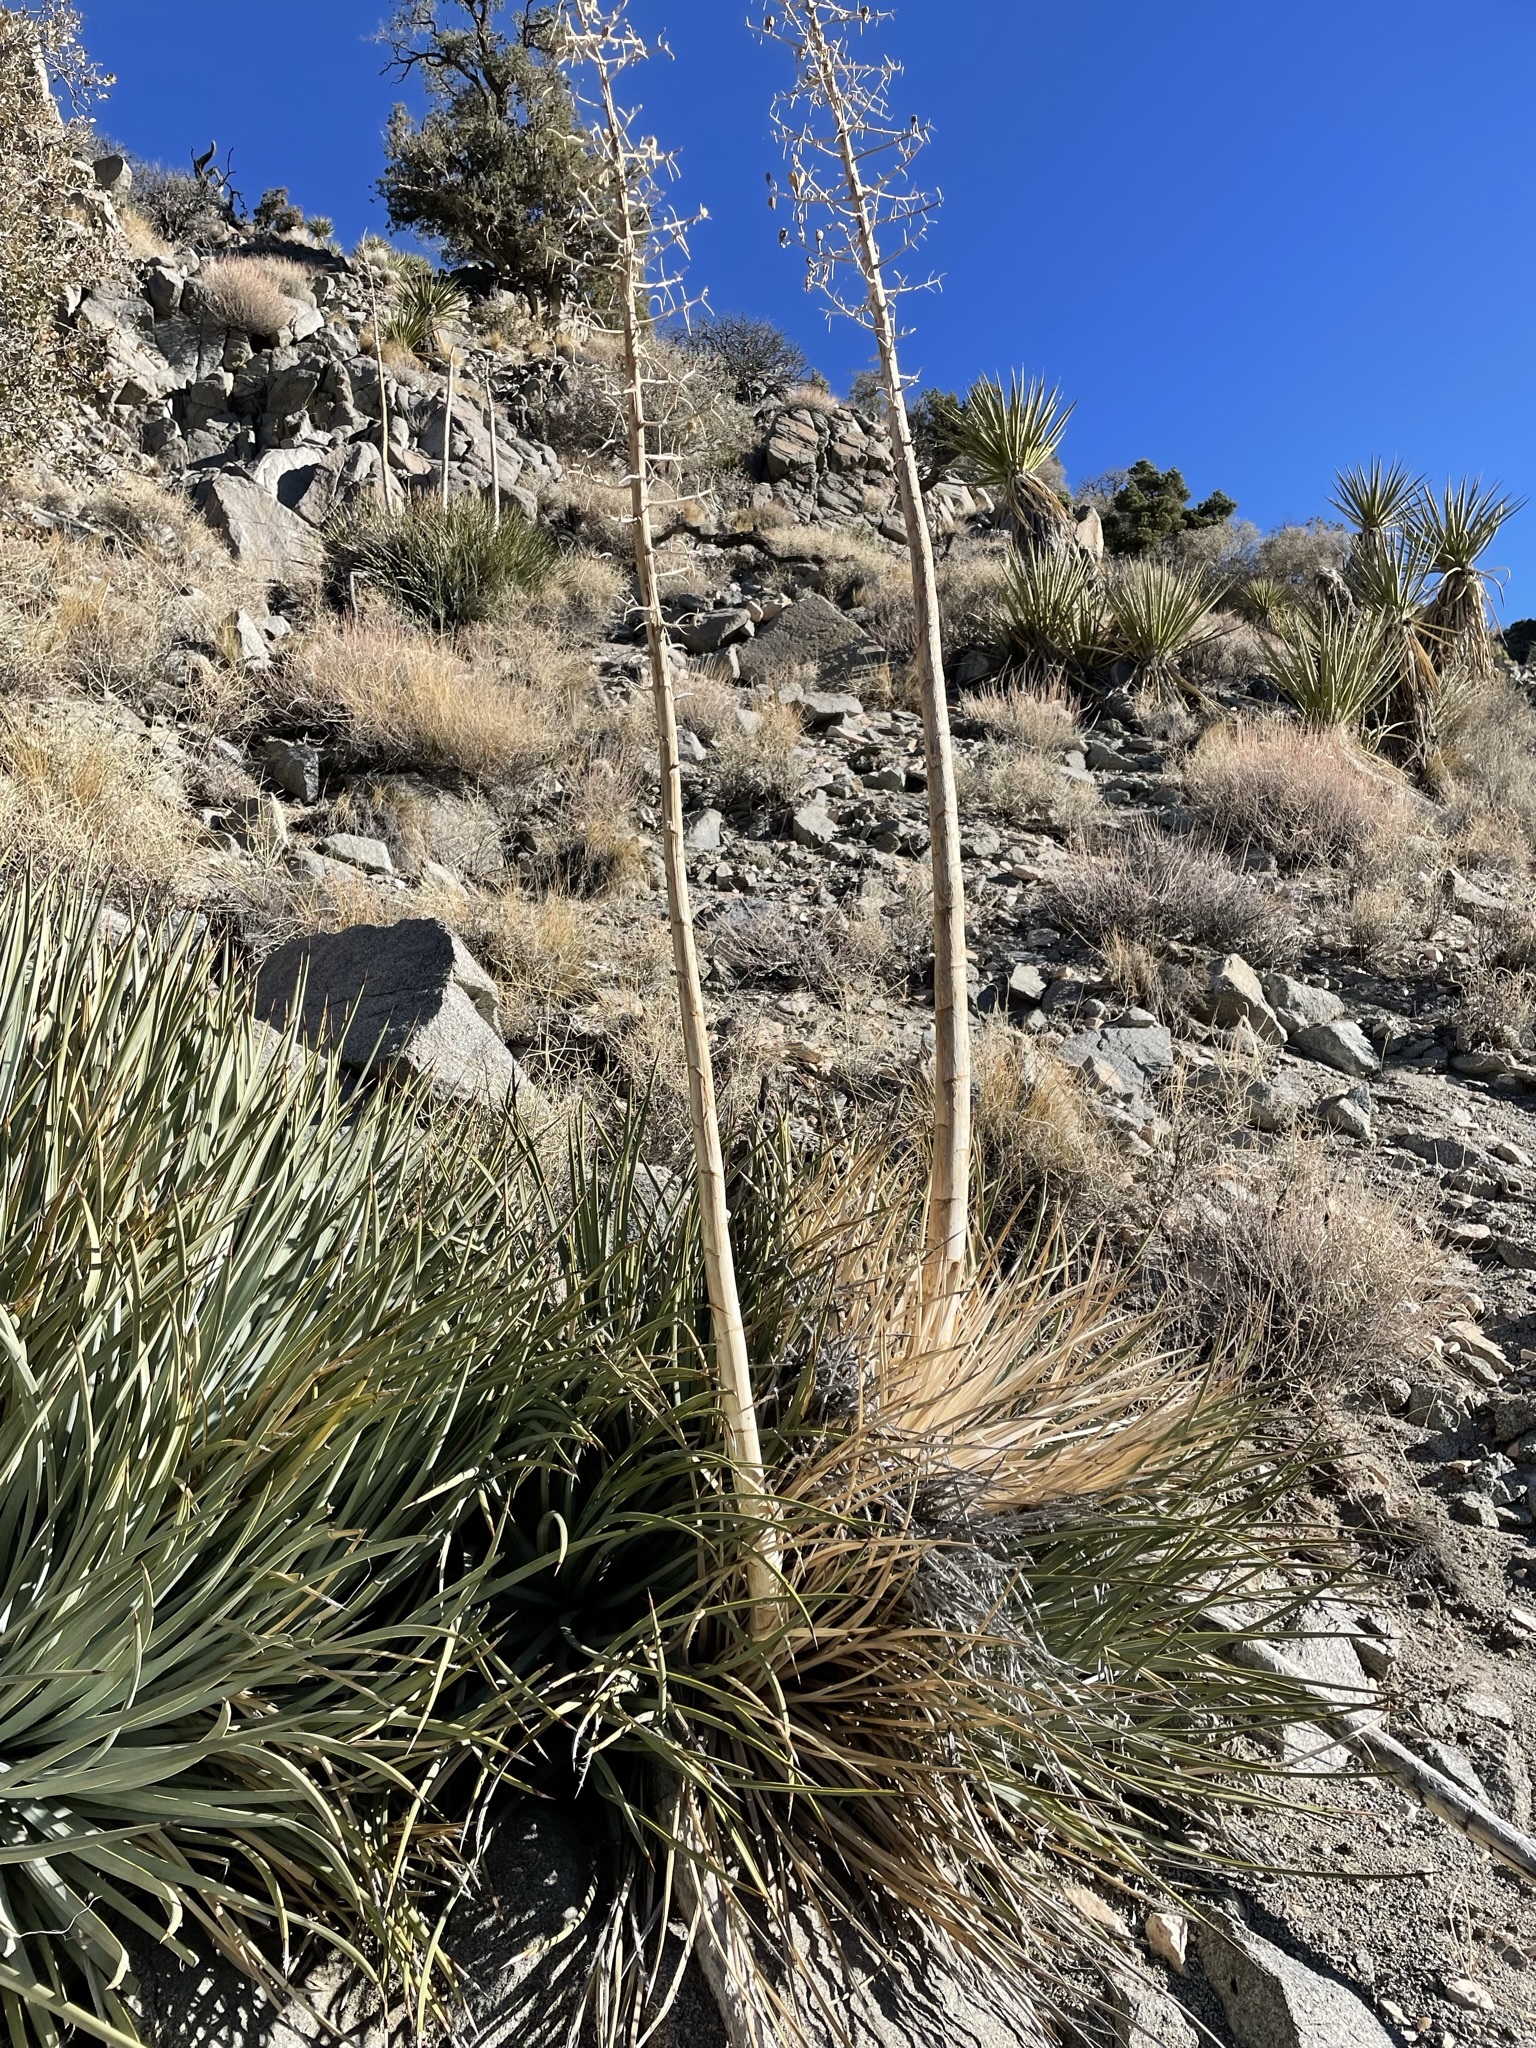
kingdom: Plantae
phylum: Tracheophyta
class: Liliopsida
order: Asparagales
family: Asparagaceae
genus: Hesperoyucca
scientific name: Hesperoyucca whipplei
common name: Our lord's-candle
